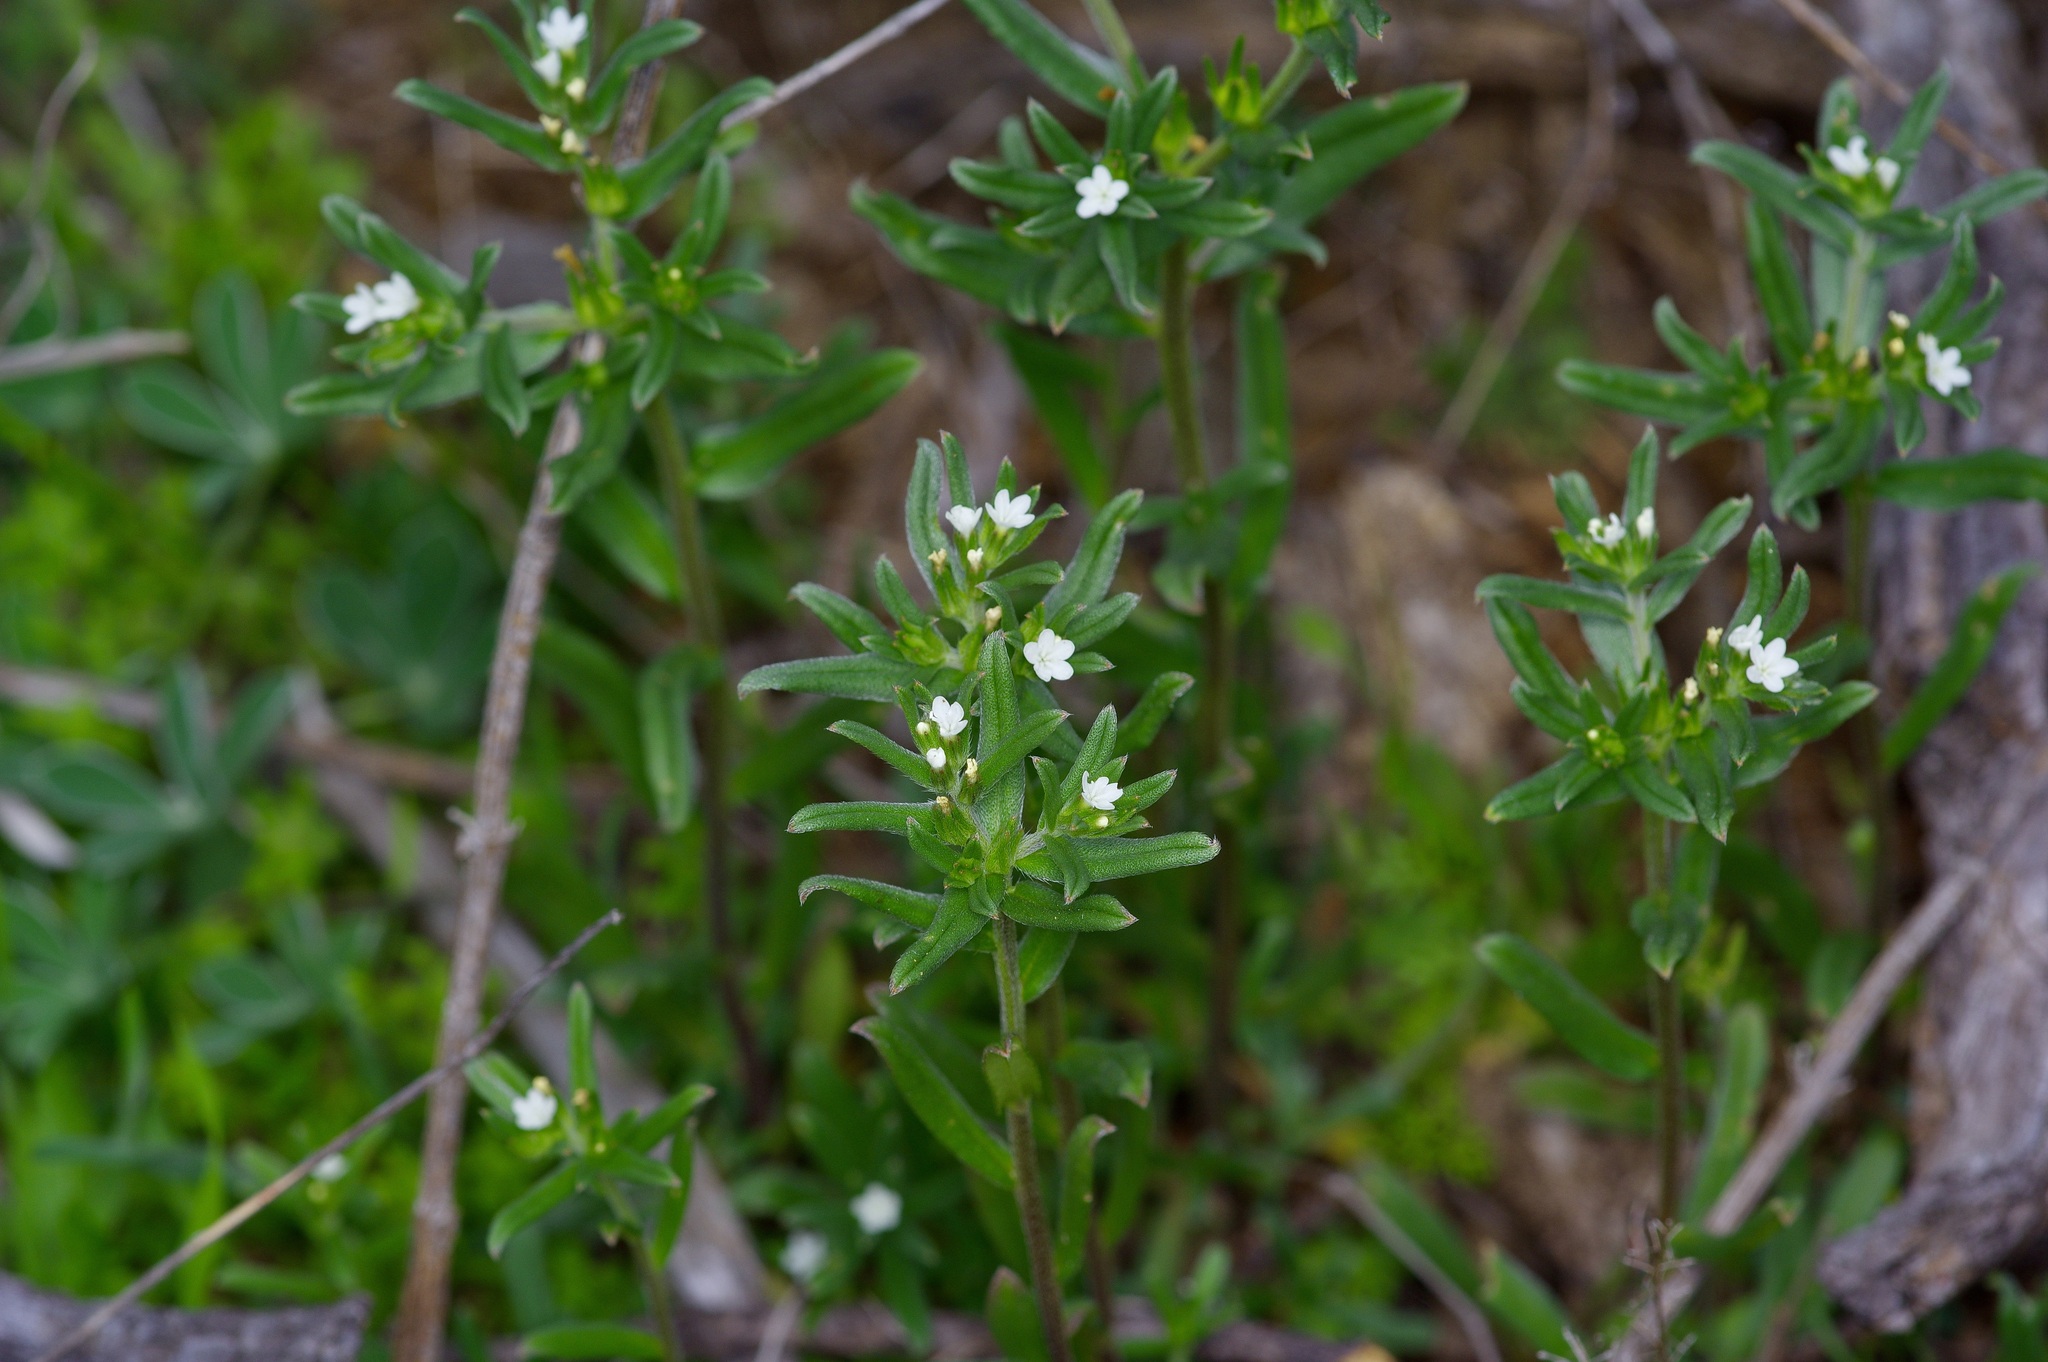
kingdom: Plantae
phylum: Tracheophyta
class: Magnoliopsida
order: Boraginales
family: Boraginaceae
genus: Buglossoides
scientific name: Buglossoides arvensis
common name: Corn gromwell
